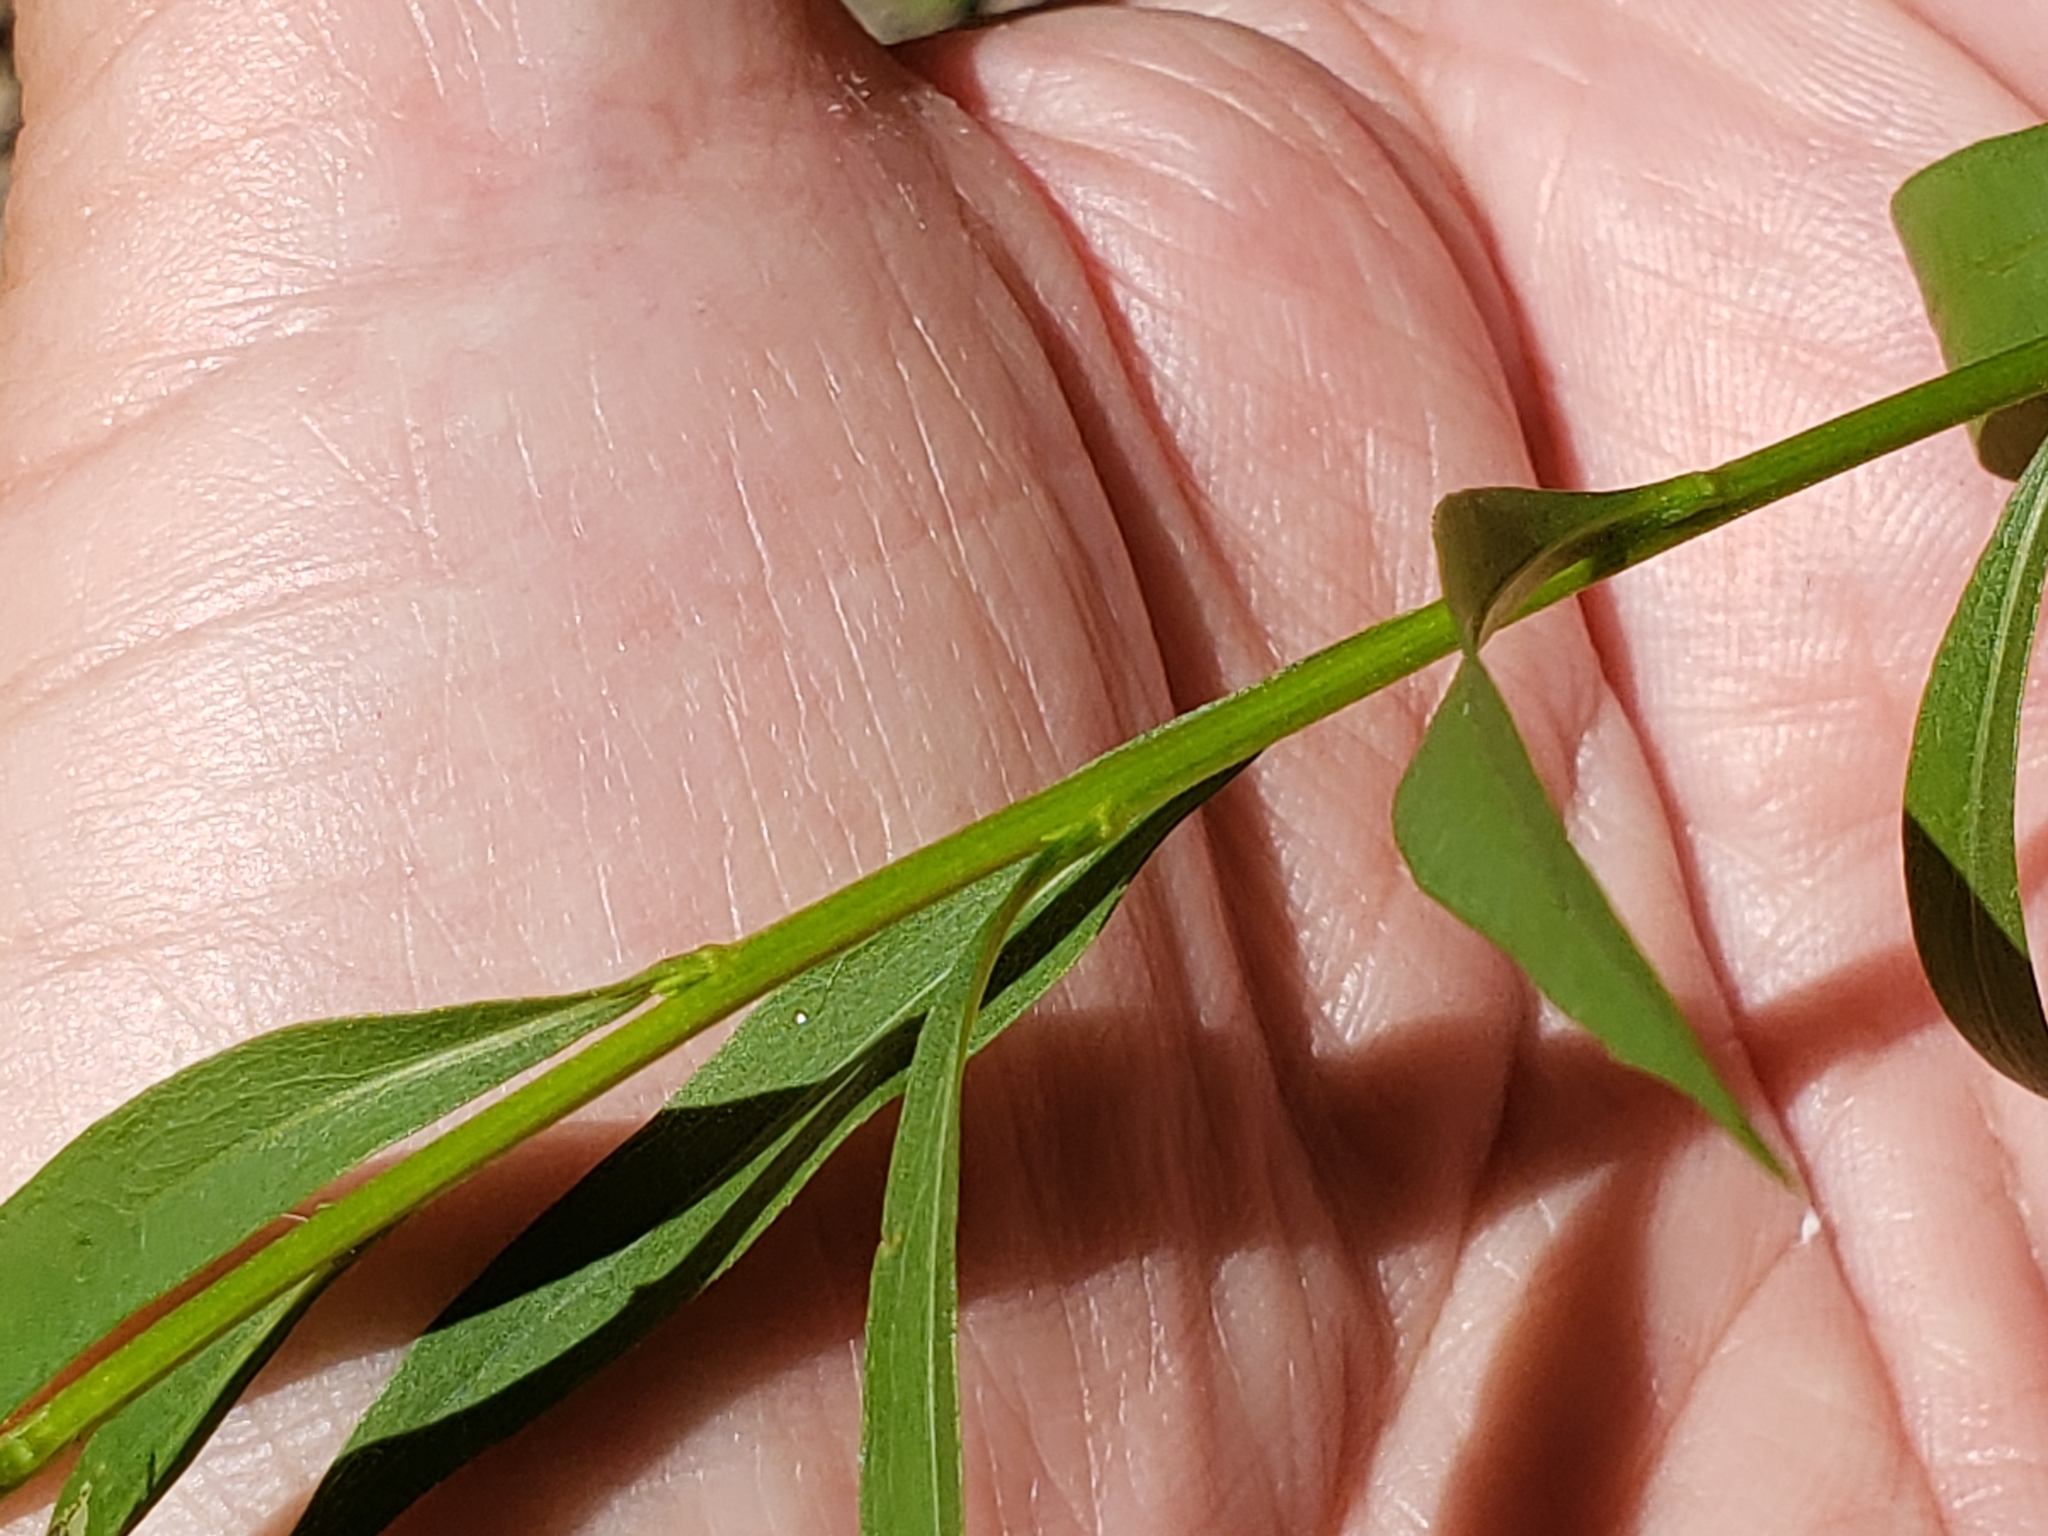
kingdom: Plantae
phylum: Tracheophyta
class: Magnoliopsida
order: Asterales
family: Asteraceae
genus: Solidago
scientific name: Solidago juncea
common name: Early goldenrod
